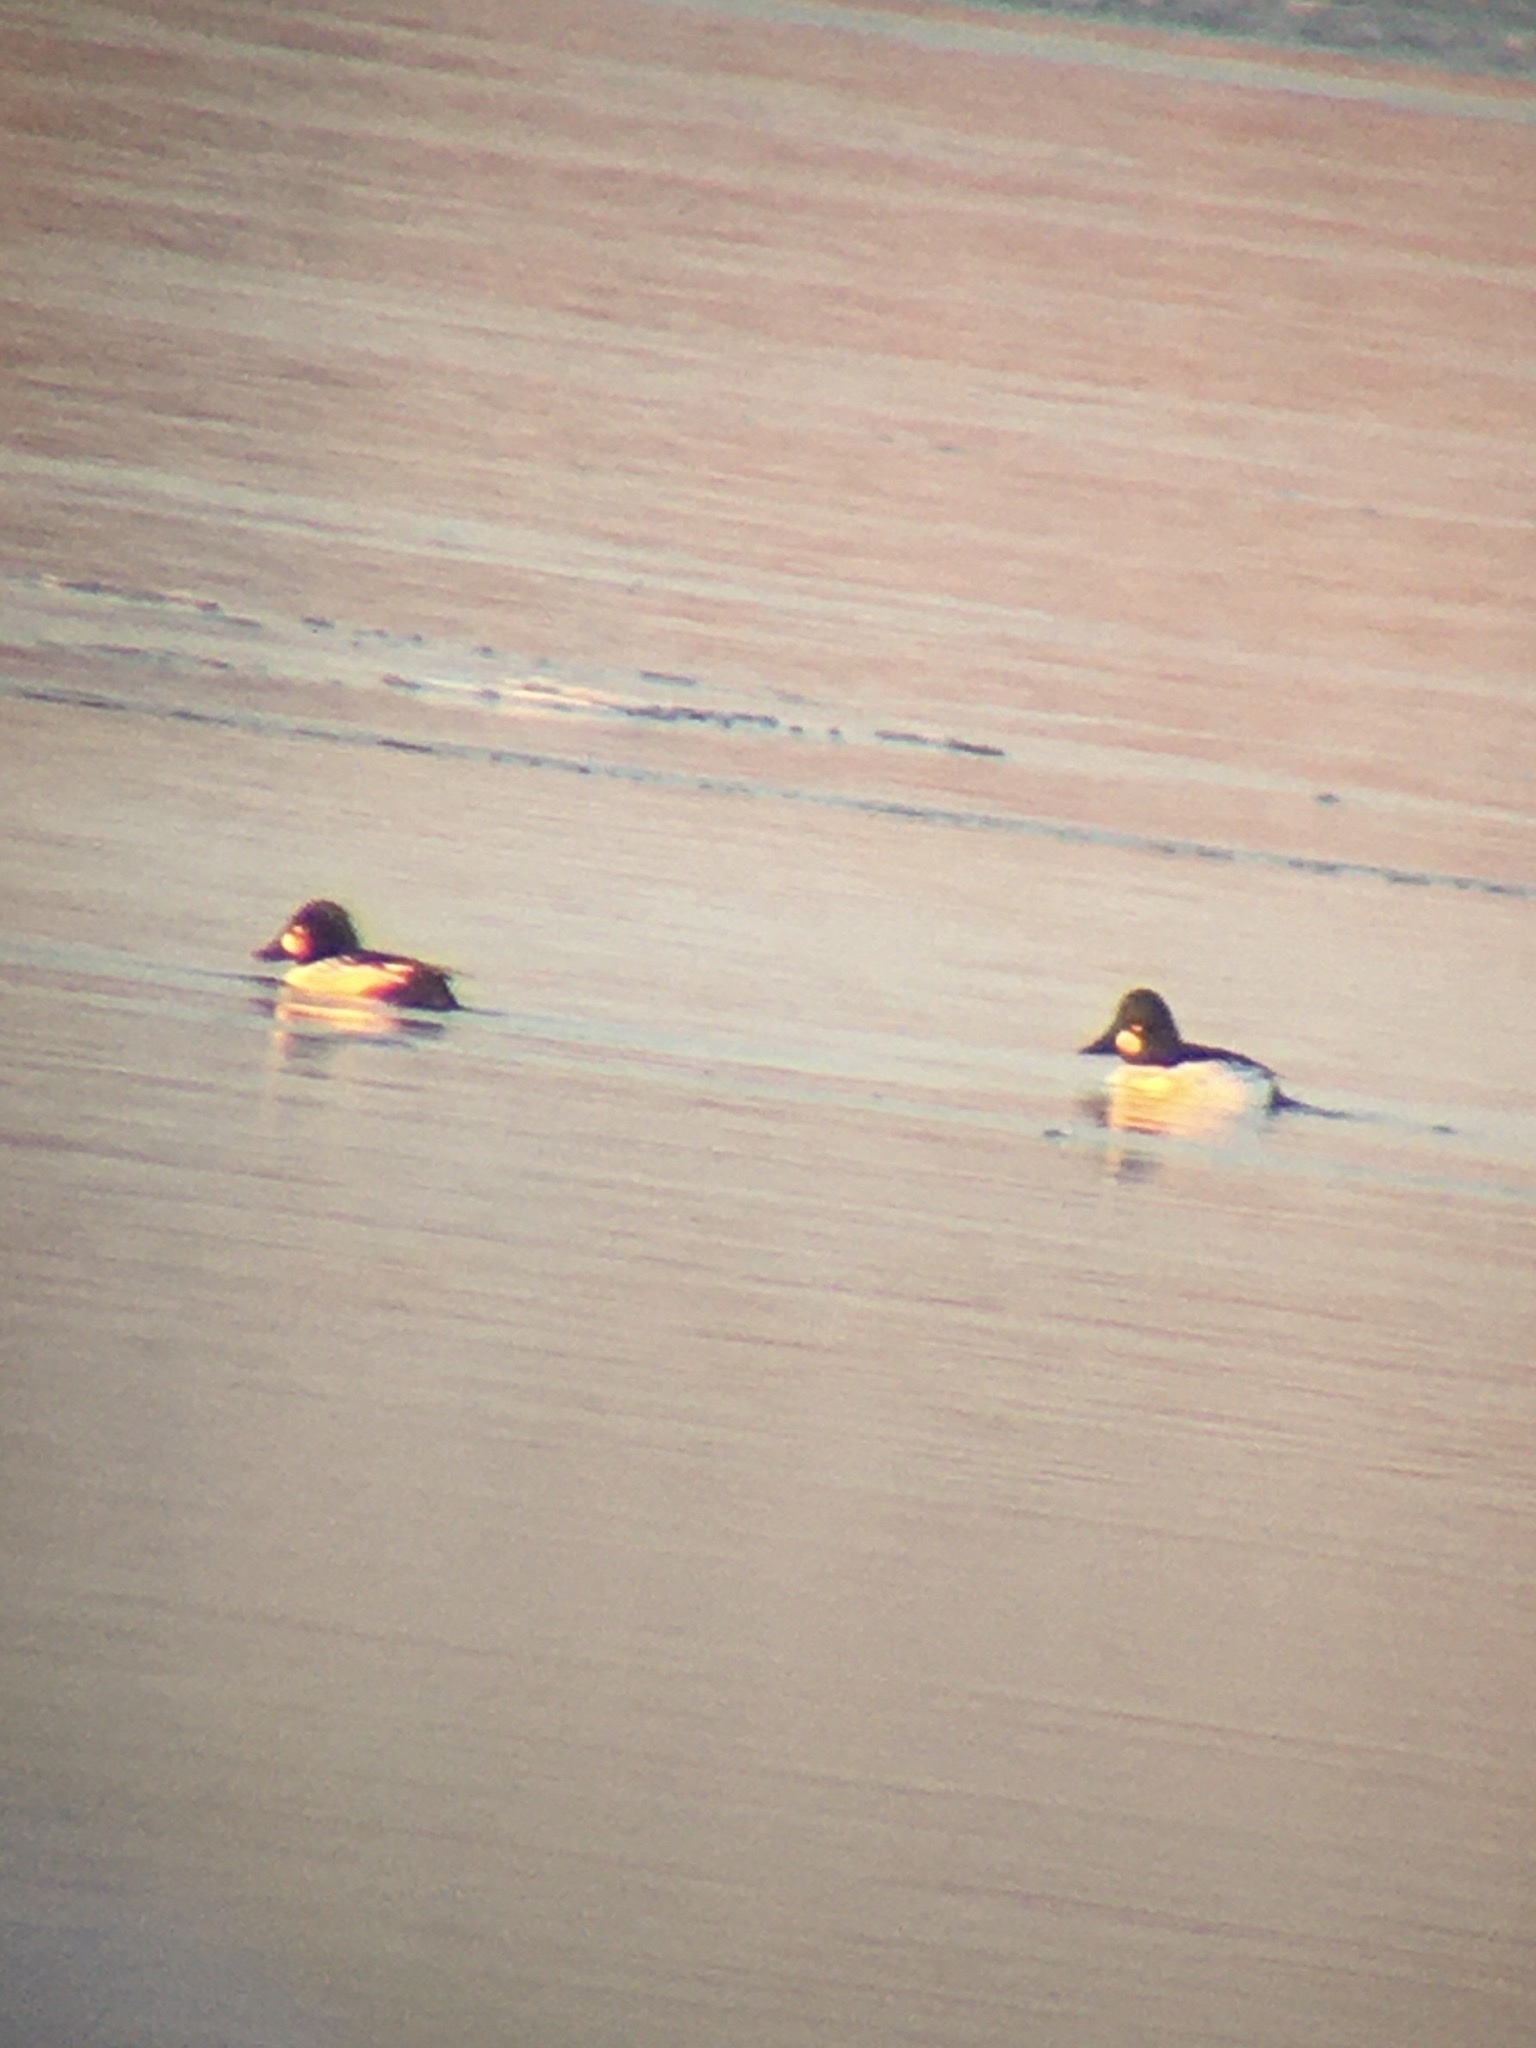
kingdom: Animalia
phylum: Chordata
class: Aves
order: Anseriformes
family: Anatidae
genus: Bucephala
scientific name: Bucephala clangula
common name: Common goldeneye
